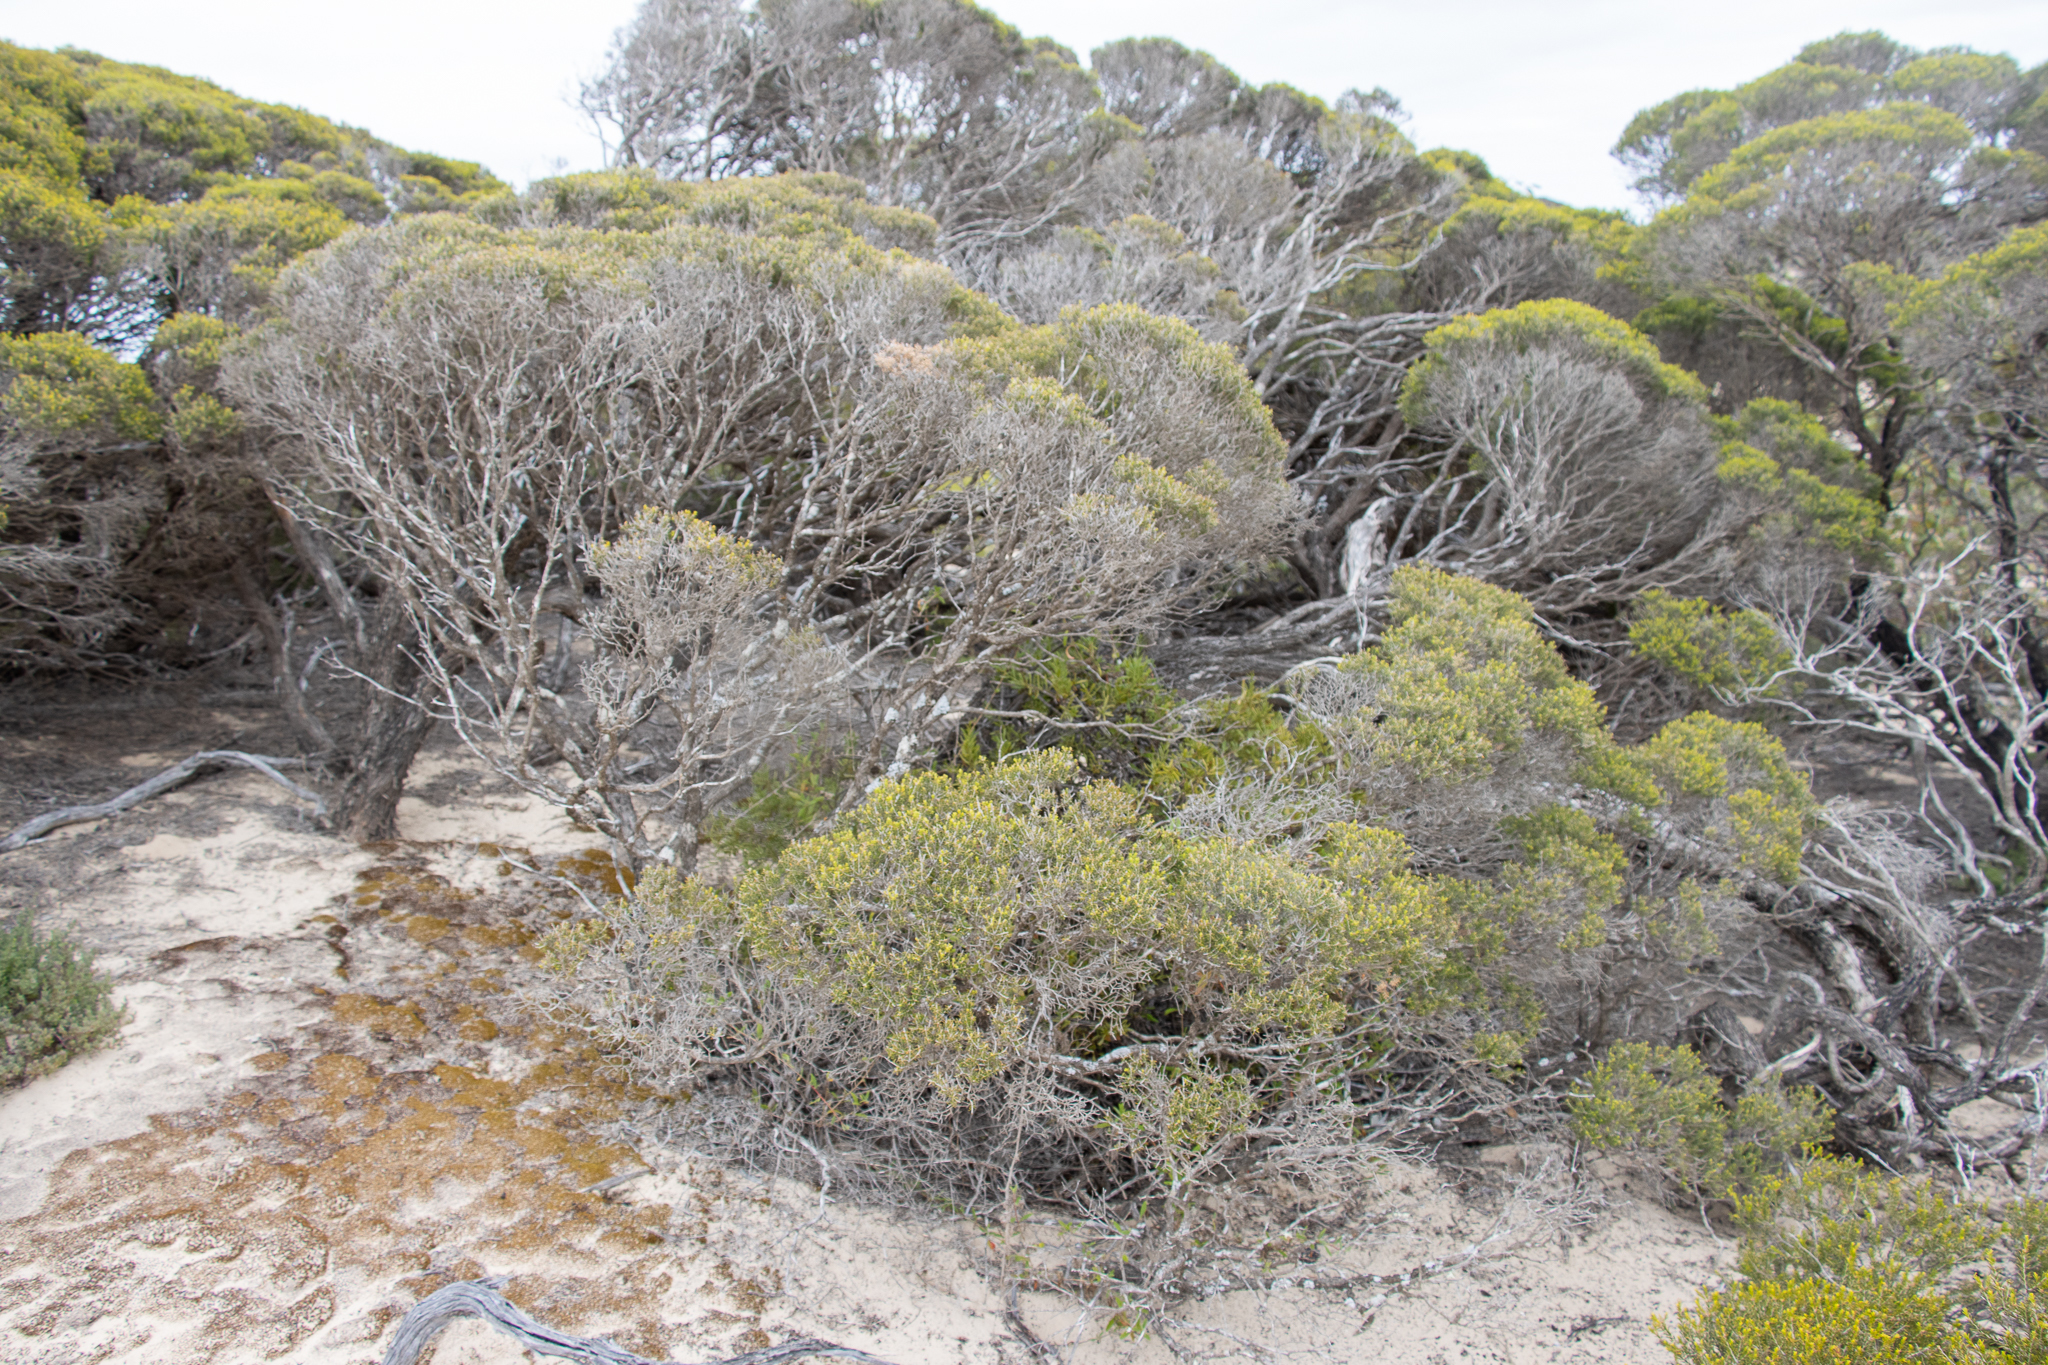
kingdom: Plantae
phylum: Tracheophyta
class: Magnoliopsida
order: Myrtales
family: Myrtaceae
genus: Melaleuca
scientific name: Melaleuca lanceolata
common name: Rottnest island teatree
